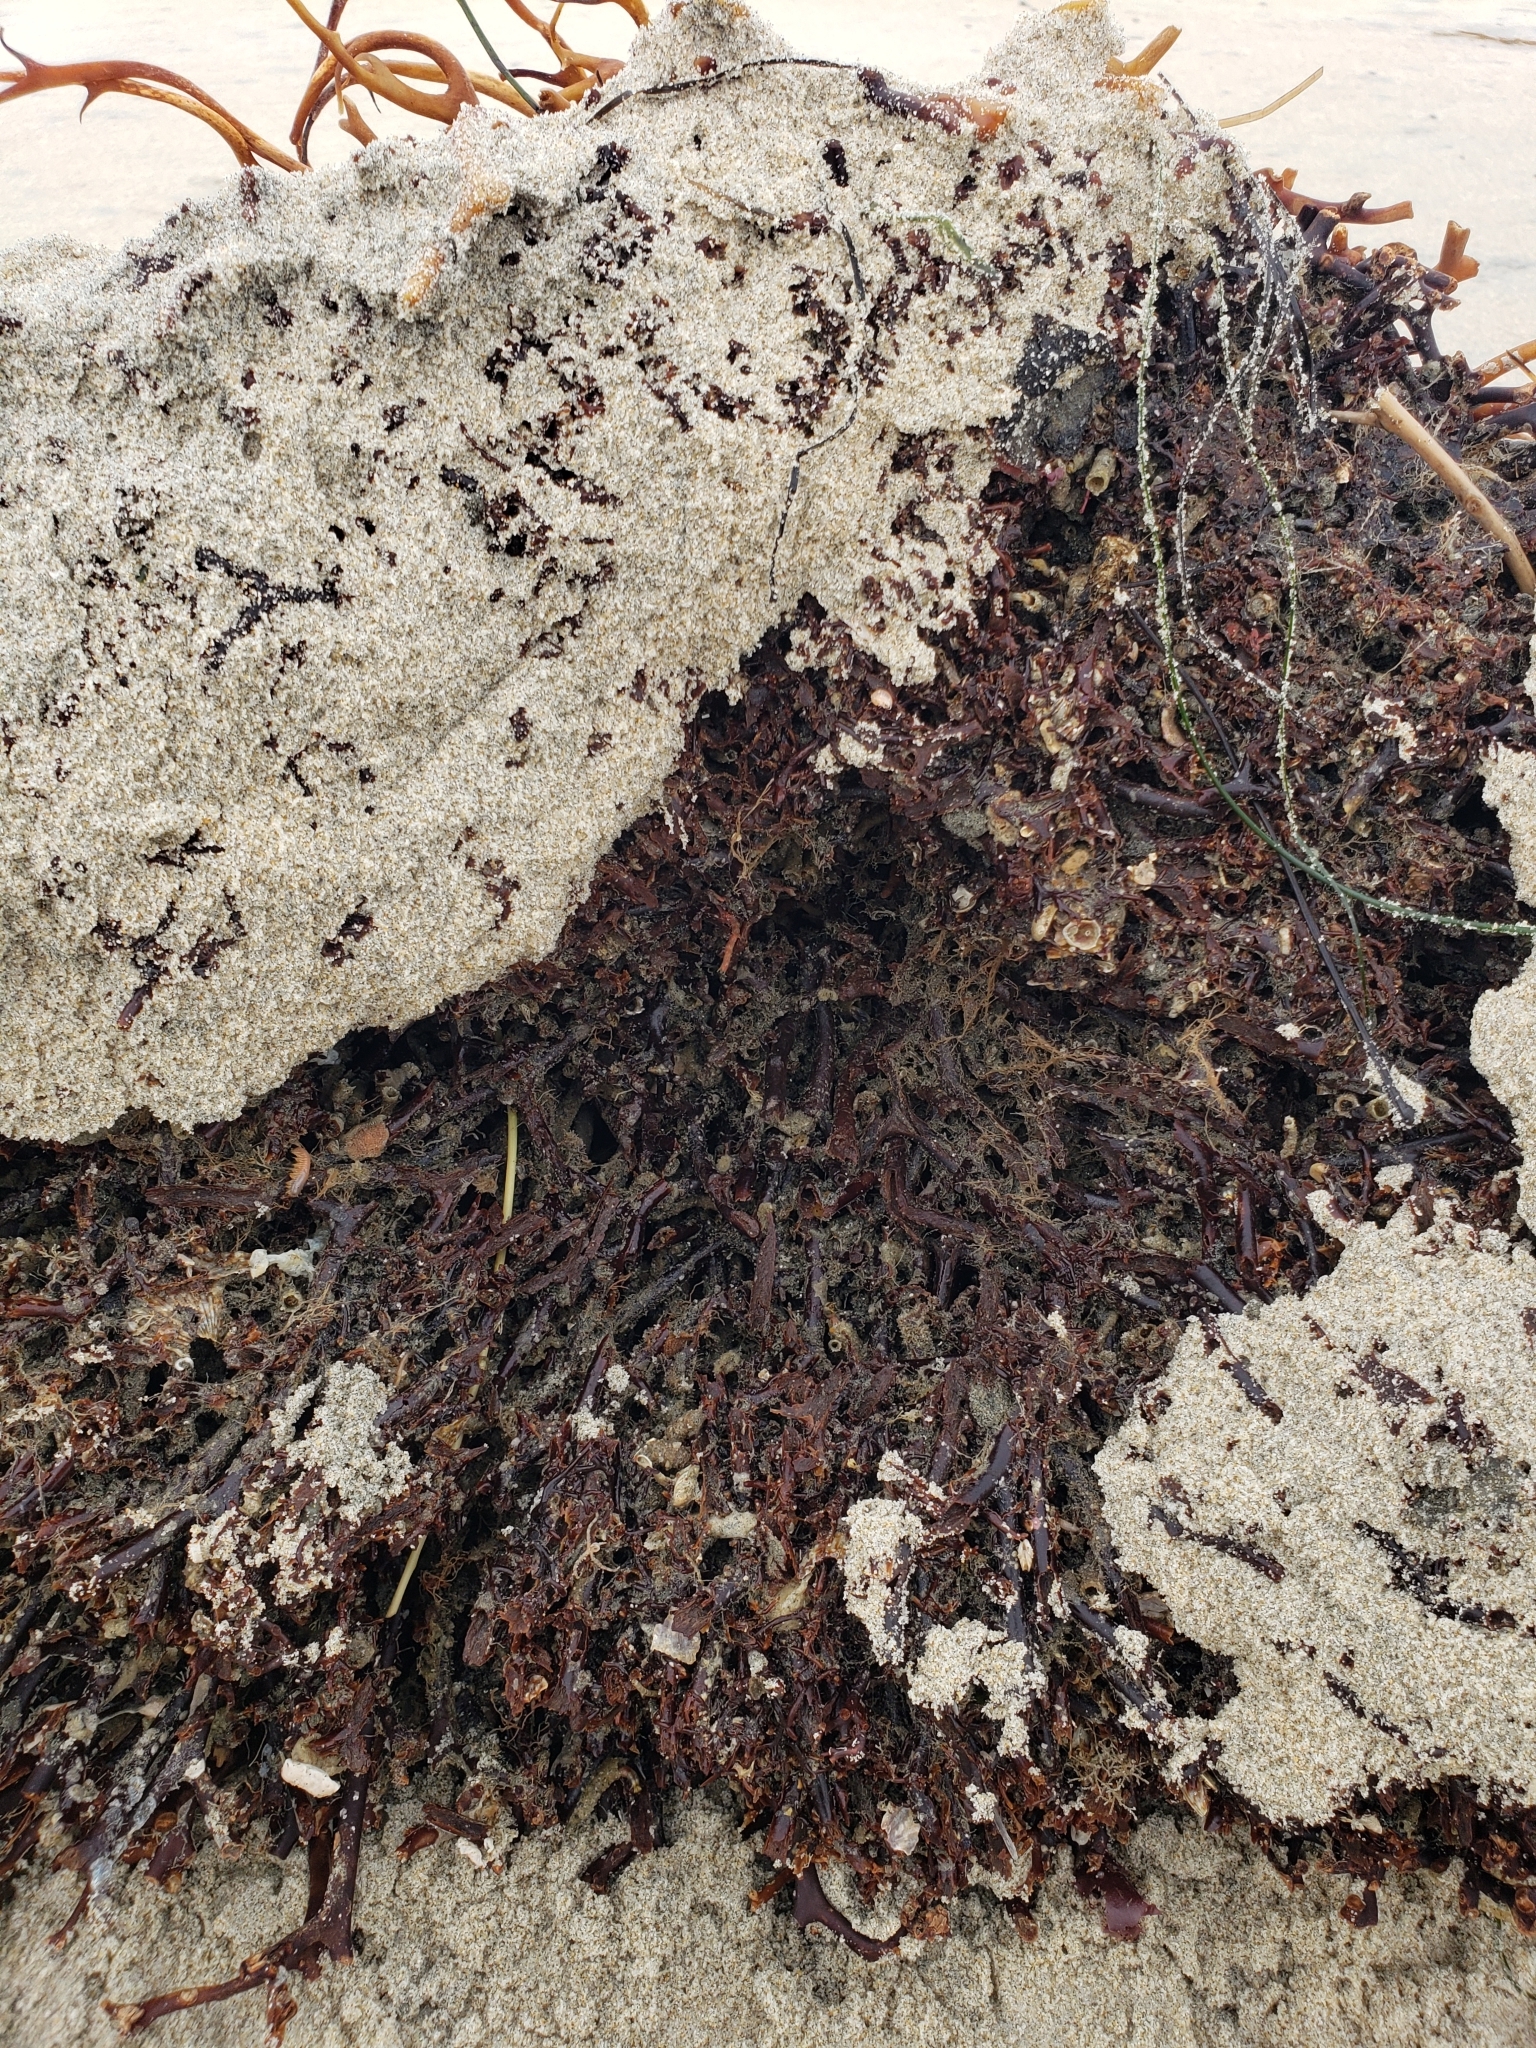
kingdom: Chromista
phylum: Ochrophyta
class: Phaeophyceae
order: Laminariales
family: Laminariaceae
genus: Macrocystis
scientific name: Macrocystis pyrifera
